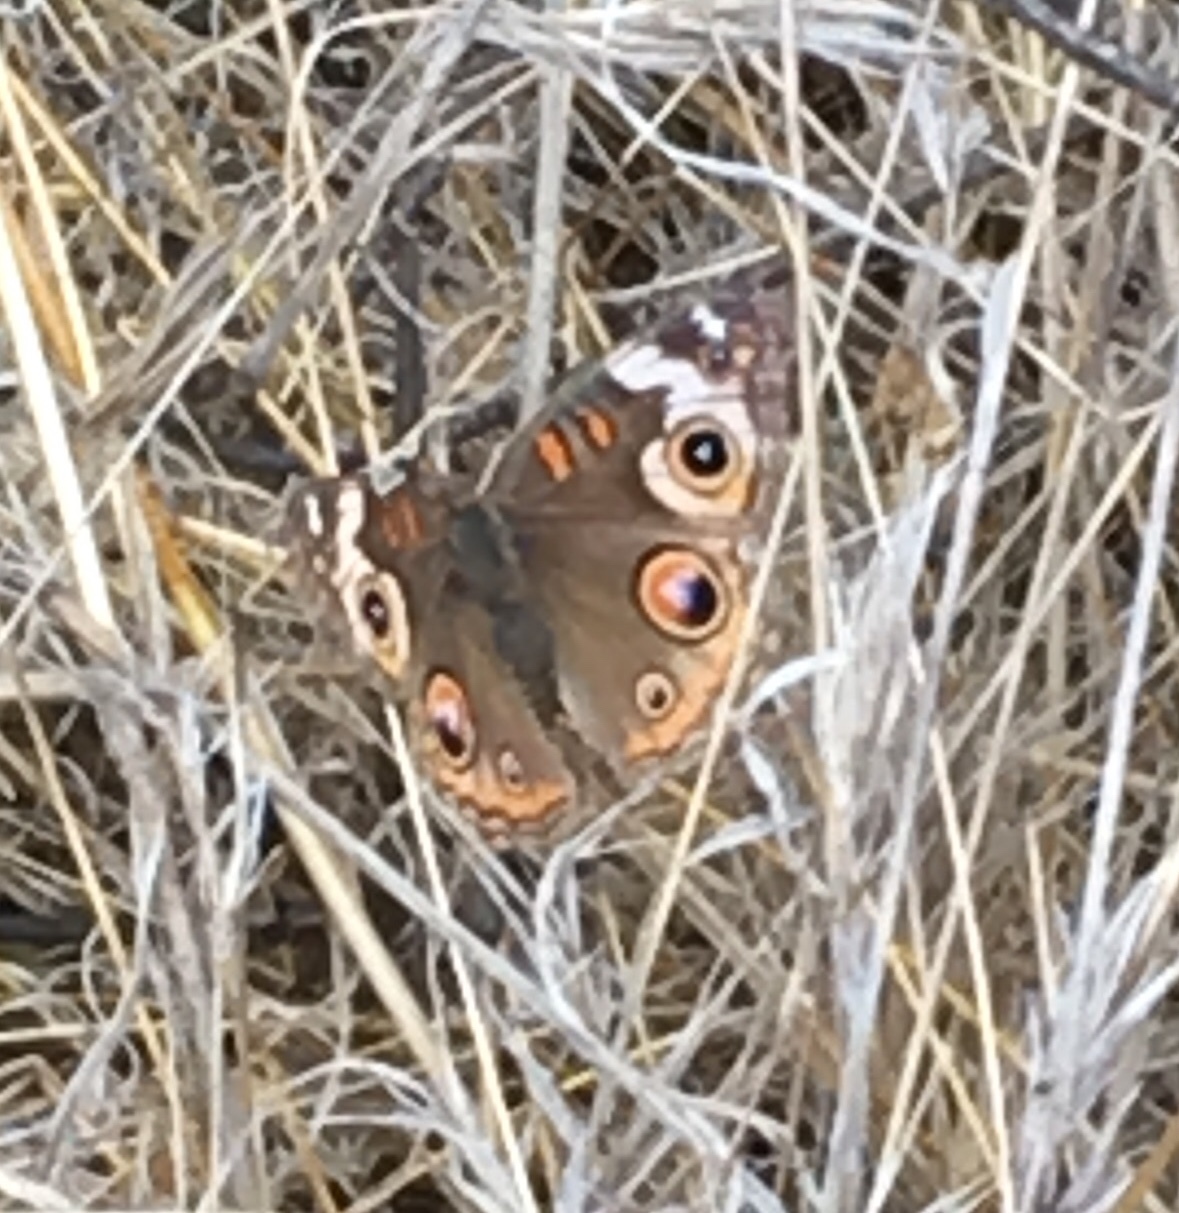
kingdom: Animalia
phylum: Arthropoda
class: Insecta
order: Lepidoptera
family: Nymphalidae
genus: Junonia
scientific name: Junonia grisea
